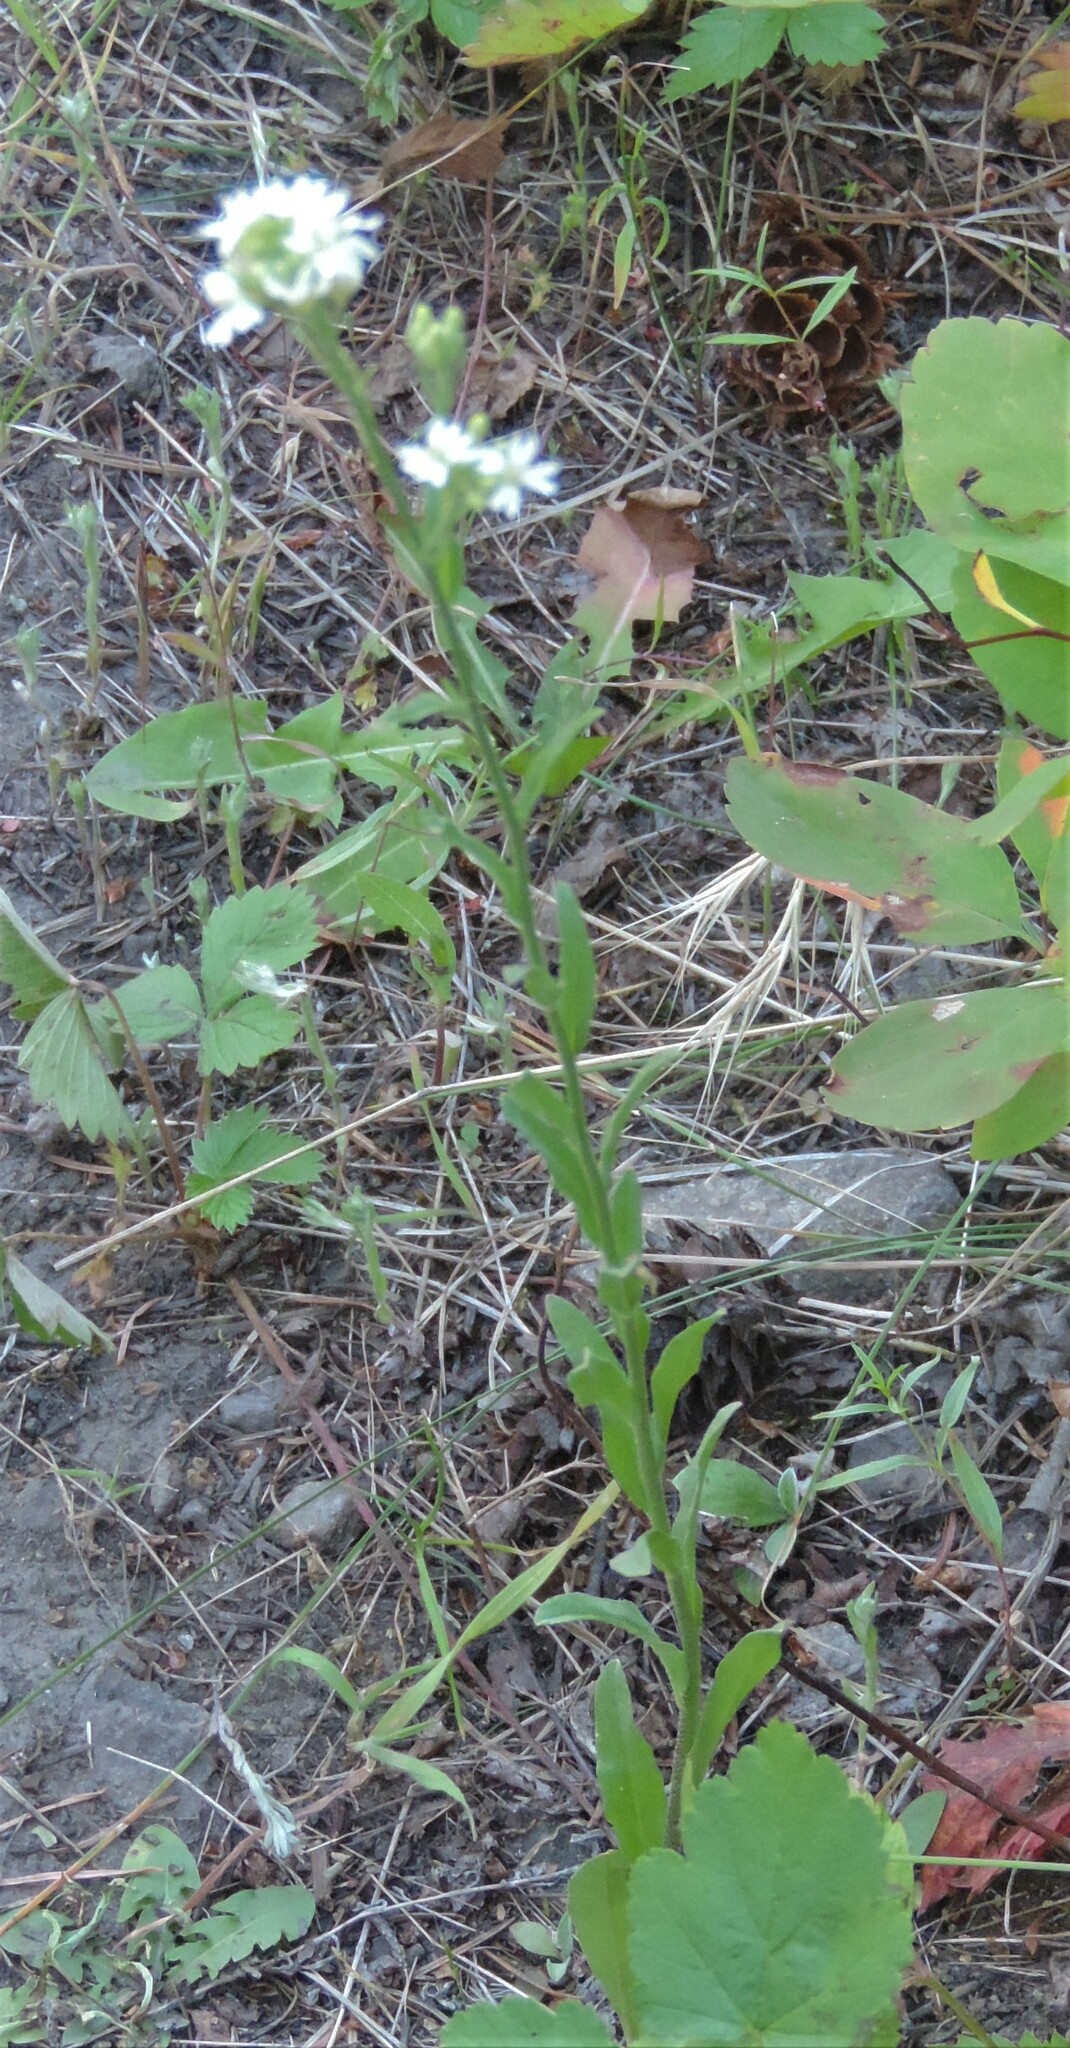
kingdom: Plantae
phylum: Tracheophyta
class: Magnoliopsida
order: Brassicales
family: Brassicaceae
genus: Berteroa
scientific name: Berteroa incana
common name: Hoary alison
